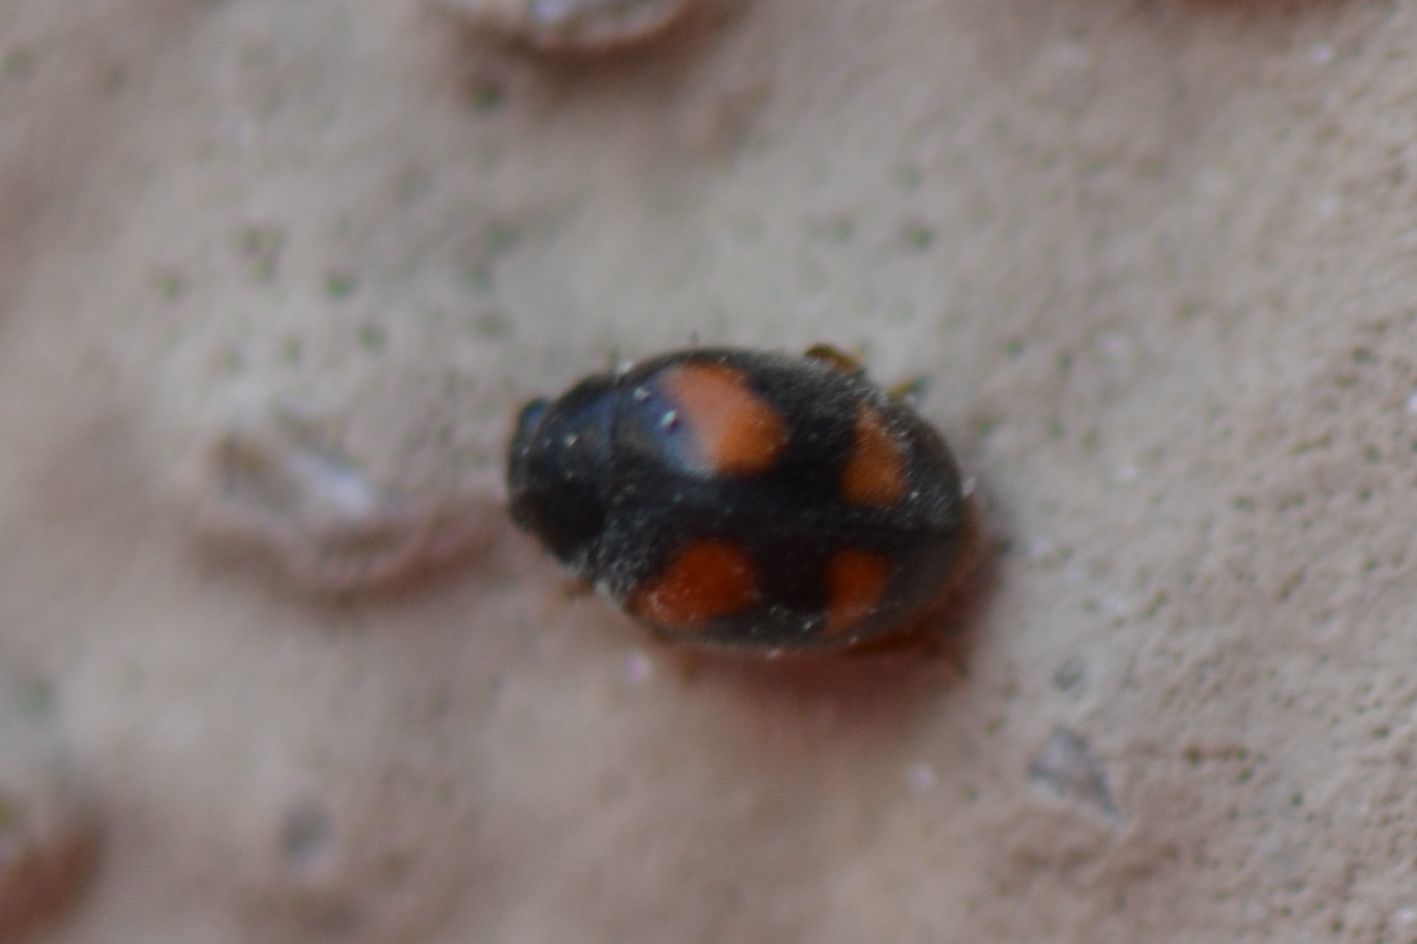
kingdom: Animalia
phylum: Arthropoda
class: Insecta
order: Coleoptera
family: Coccinellidae
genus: Nephus
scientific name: Nephus quadrimaculatus
